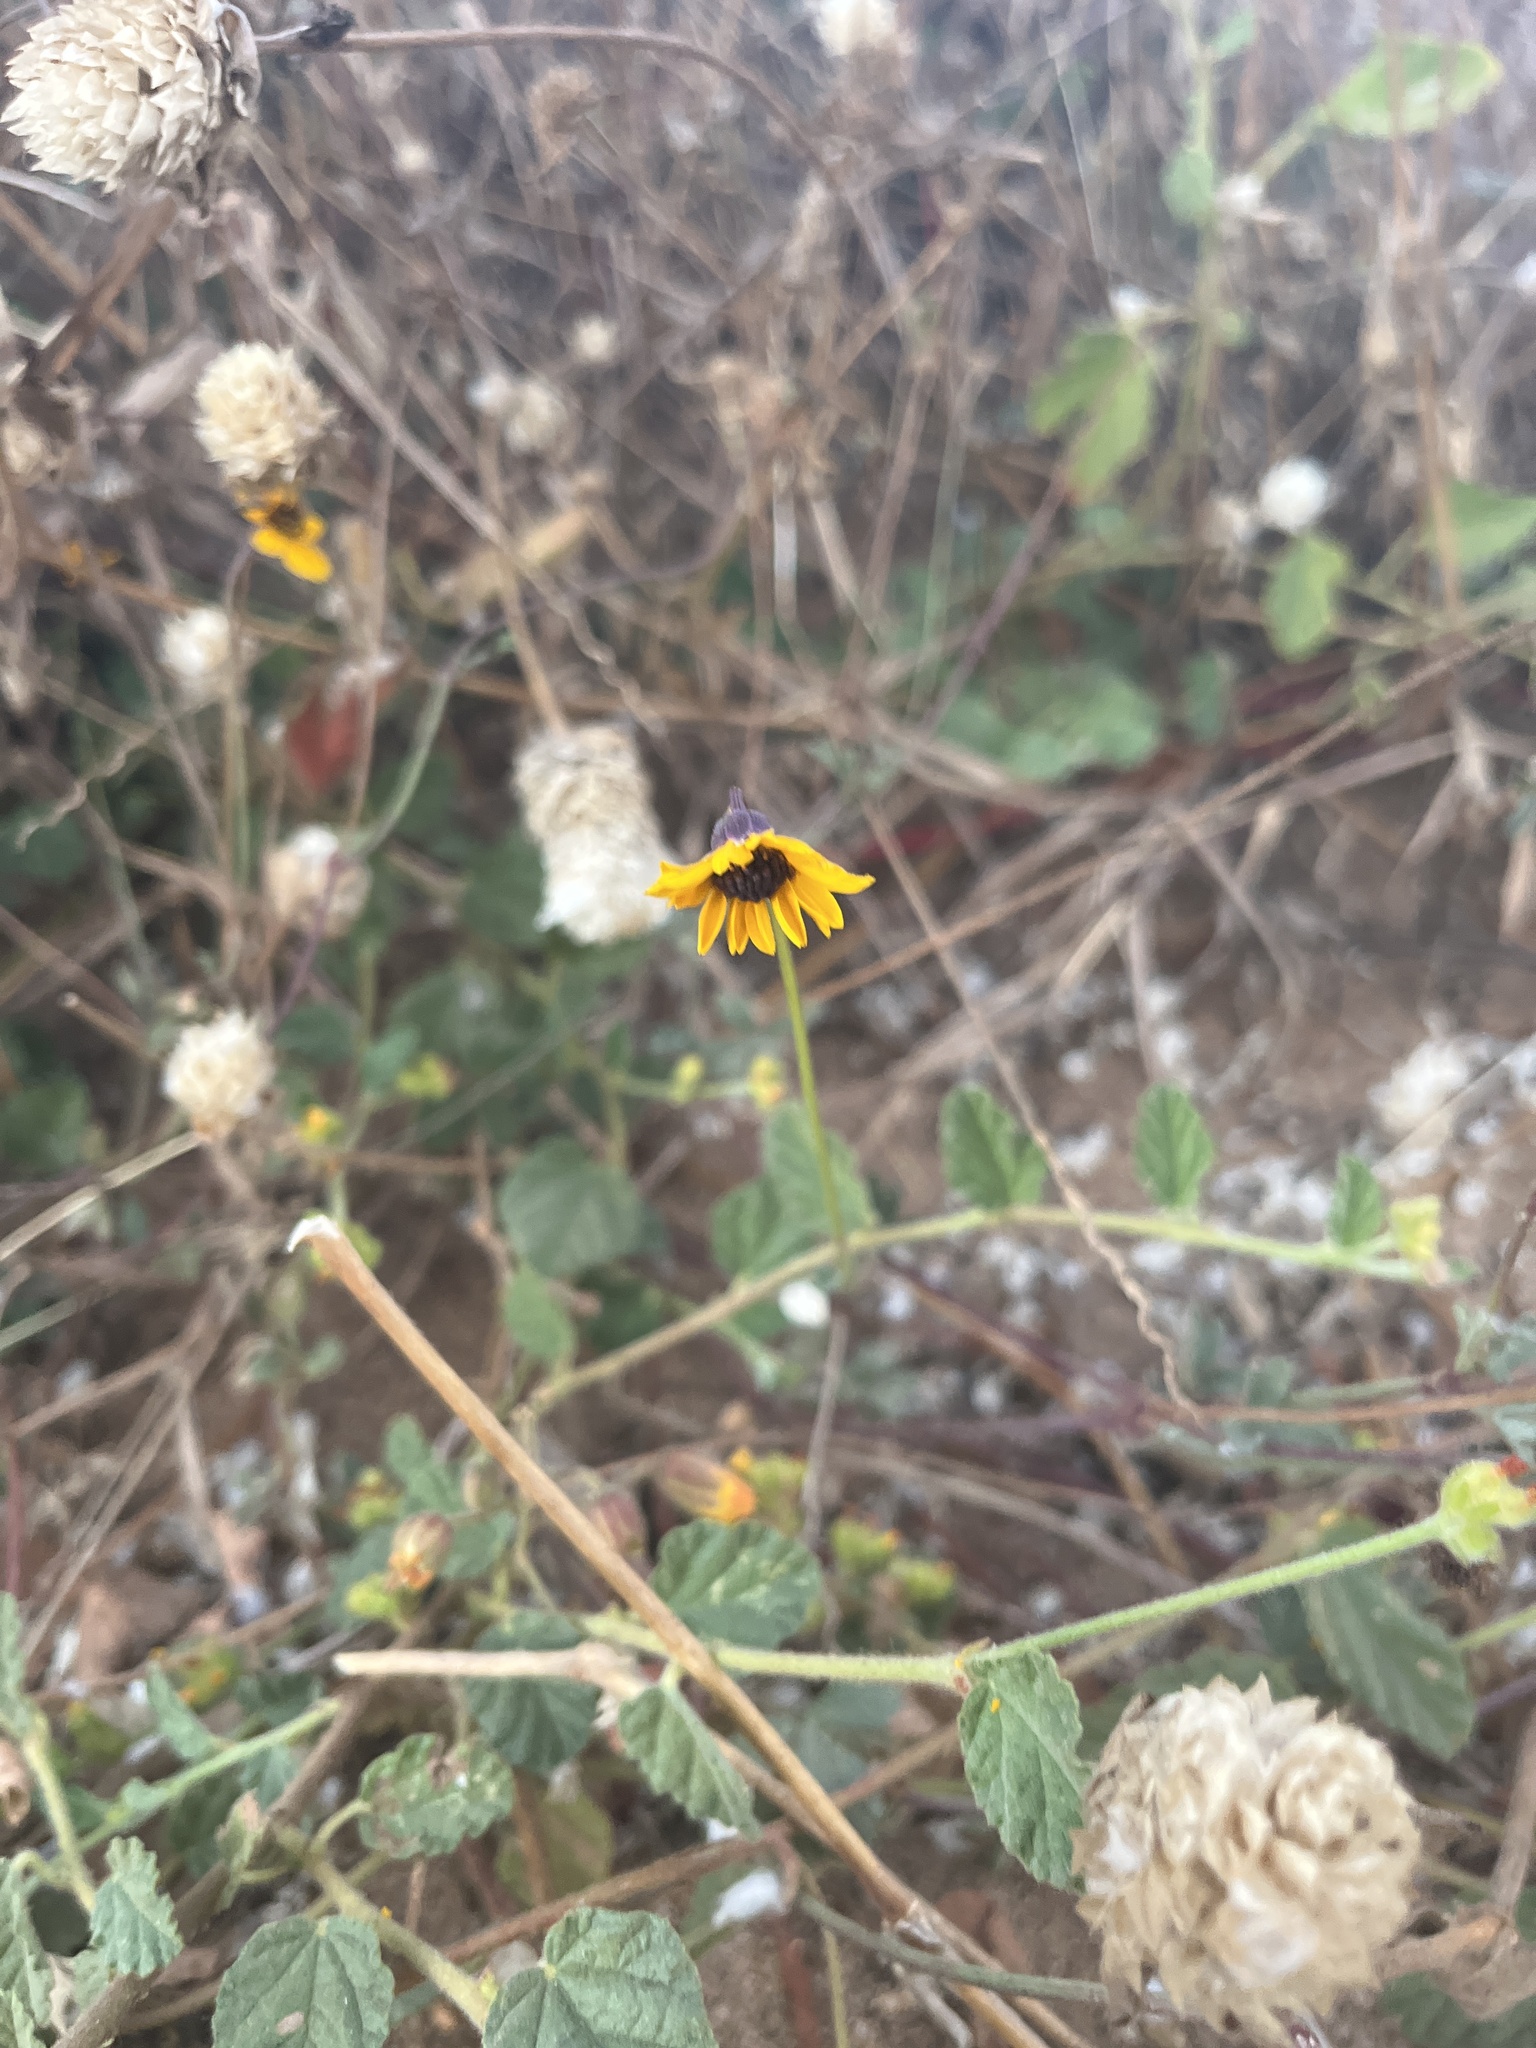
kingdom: Plantae
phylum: Tracheophyta
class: Magnoliopsida
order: Asterales
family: Asteraceae
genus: Chrysanthellum
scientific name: Chrysanthellum pilzii
